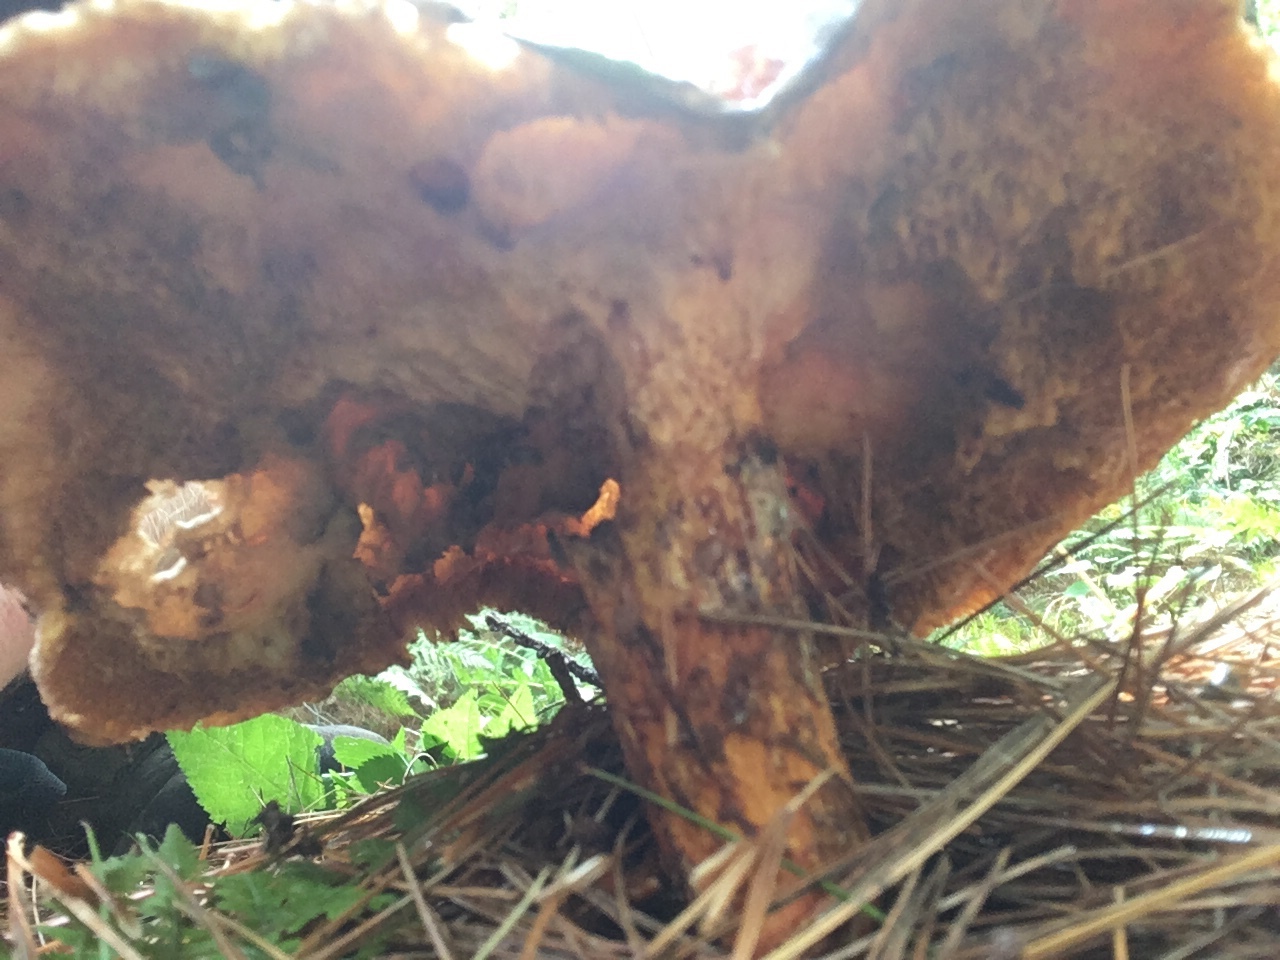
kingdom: Fungi
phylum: Basidiomycota
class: Agaricomycetes
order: Boletales
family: Suillaceae
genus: Suillus
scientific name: Suillus spraguei
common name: Painted suillus
